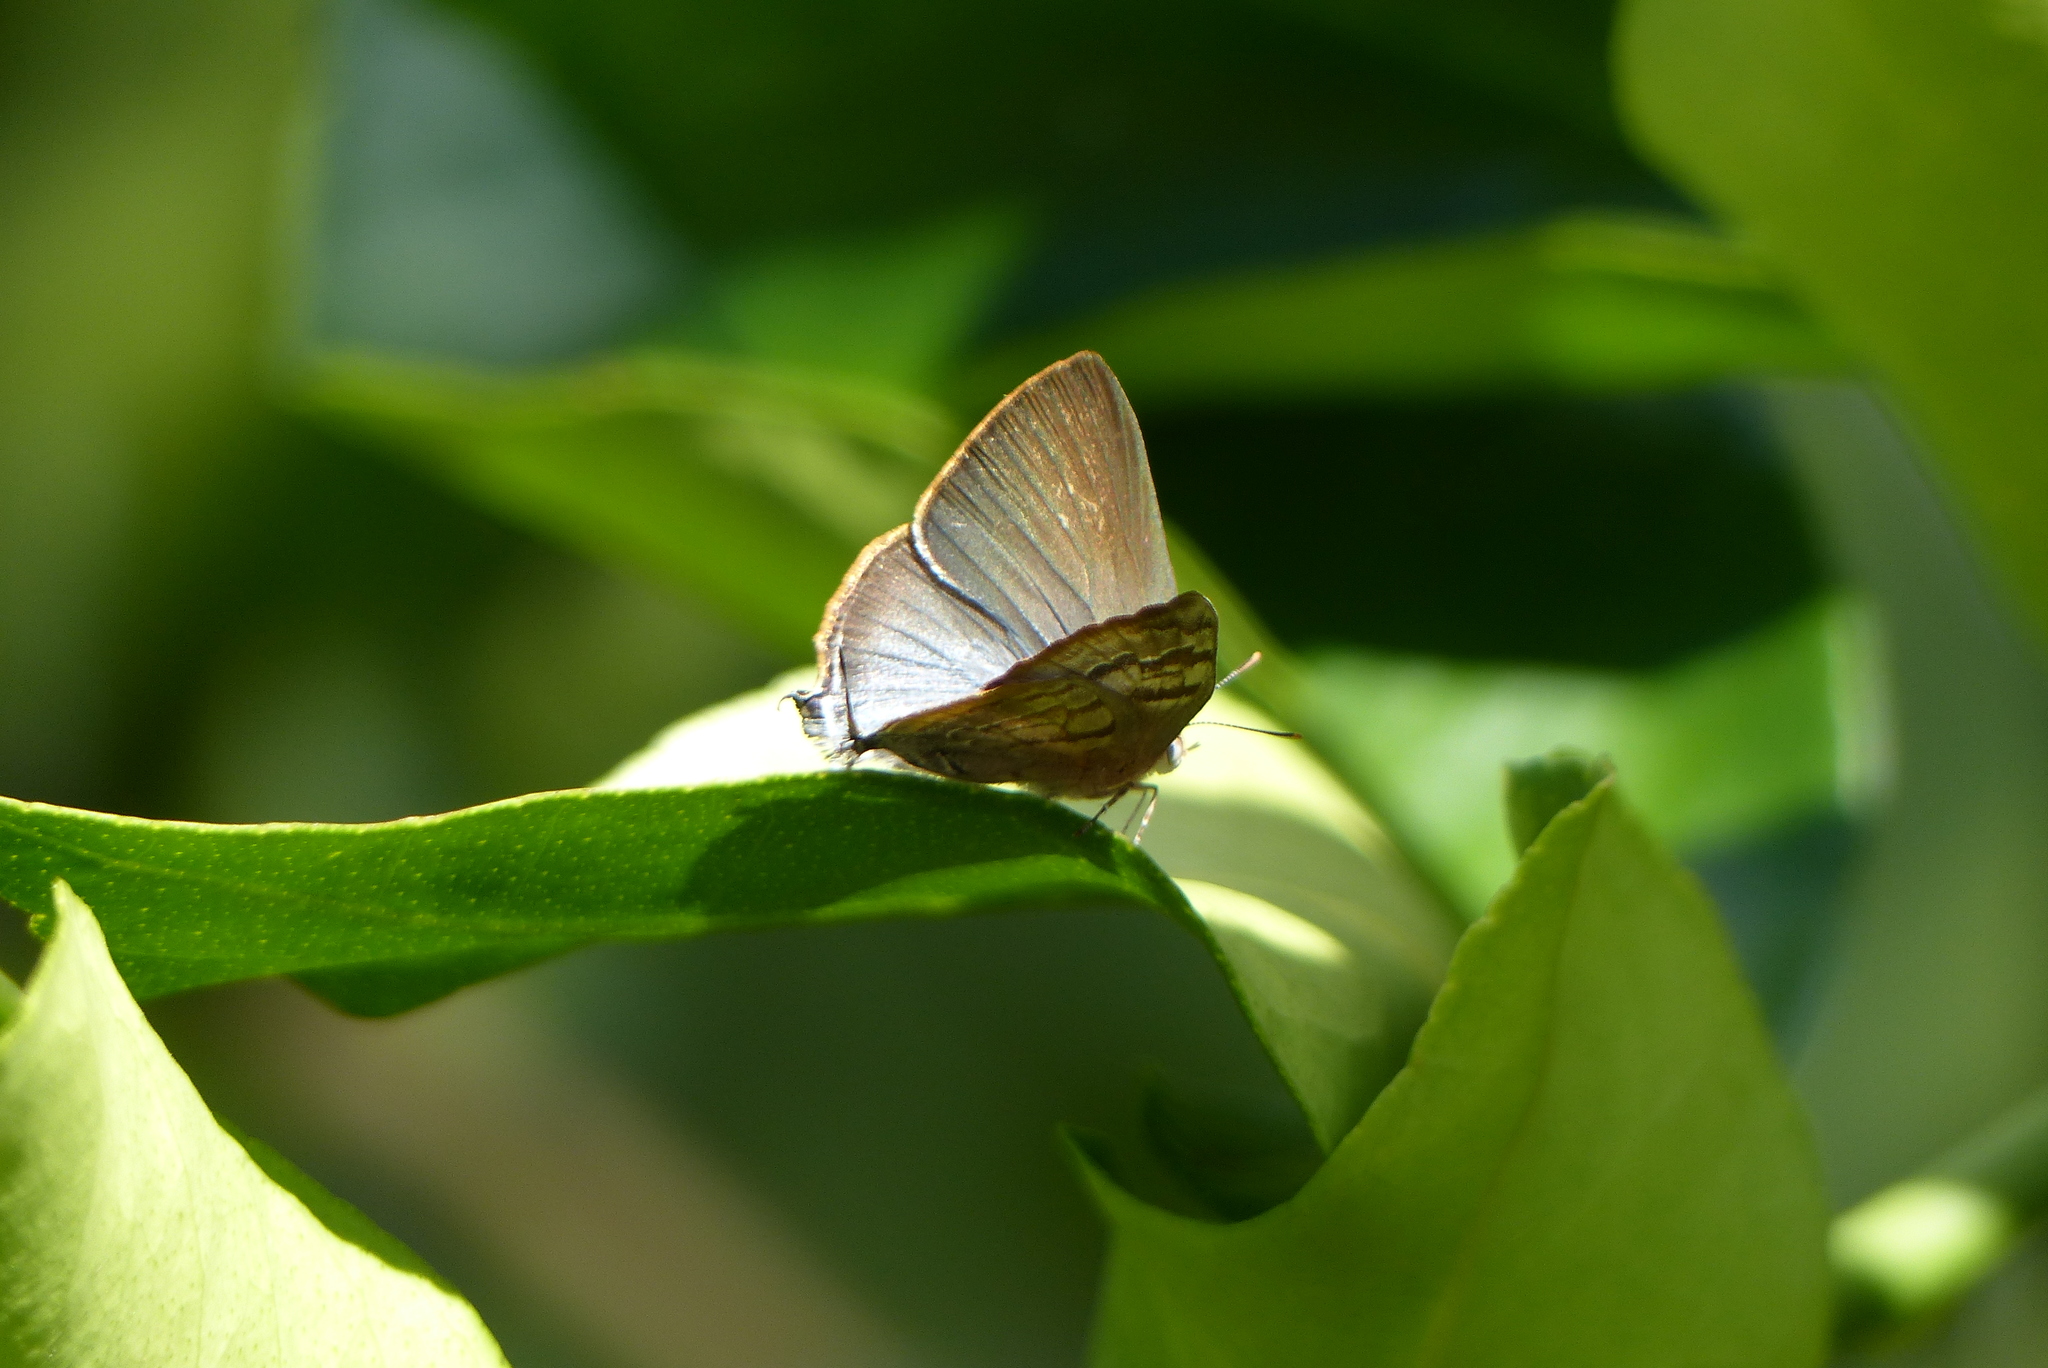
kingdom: Animalia
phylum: Arthropoda
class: Insecta
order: Lepidoptera
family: Lycaenidae
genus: Rekoa
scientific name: Rekoa palegon
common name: Gold-bordered hairstreak
